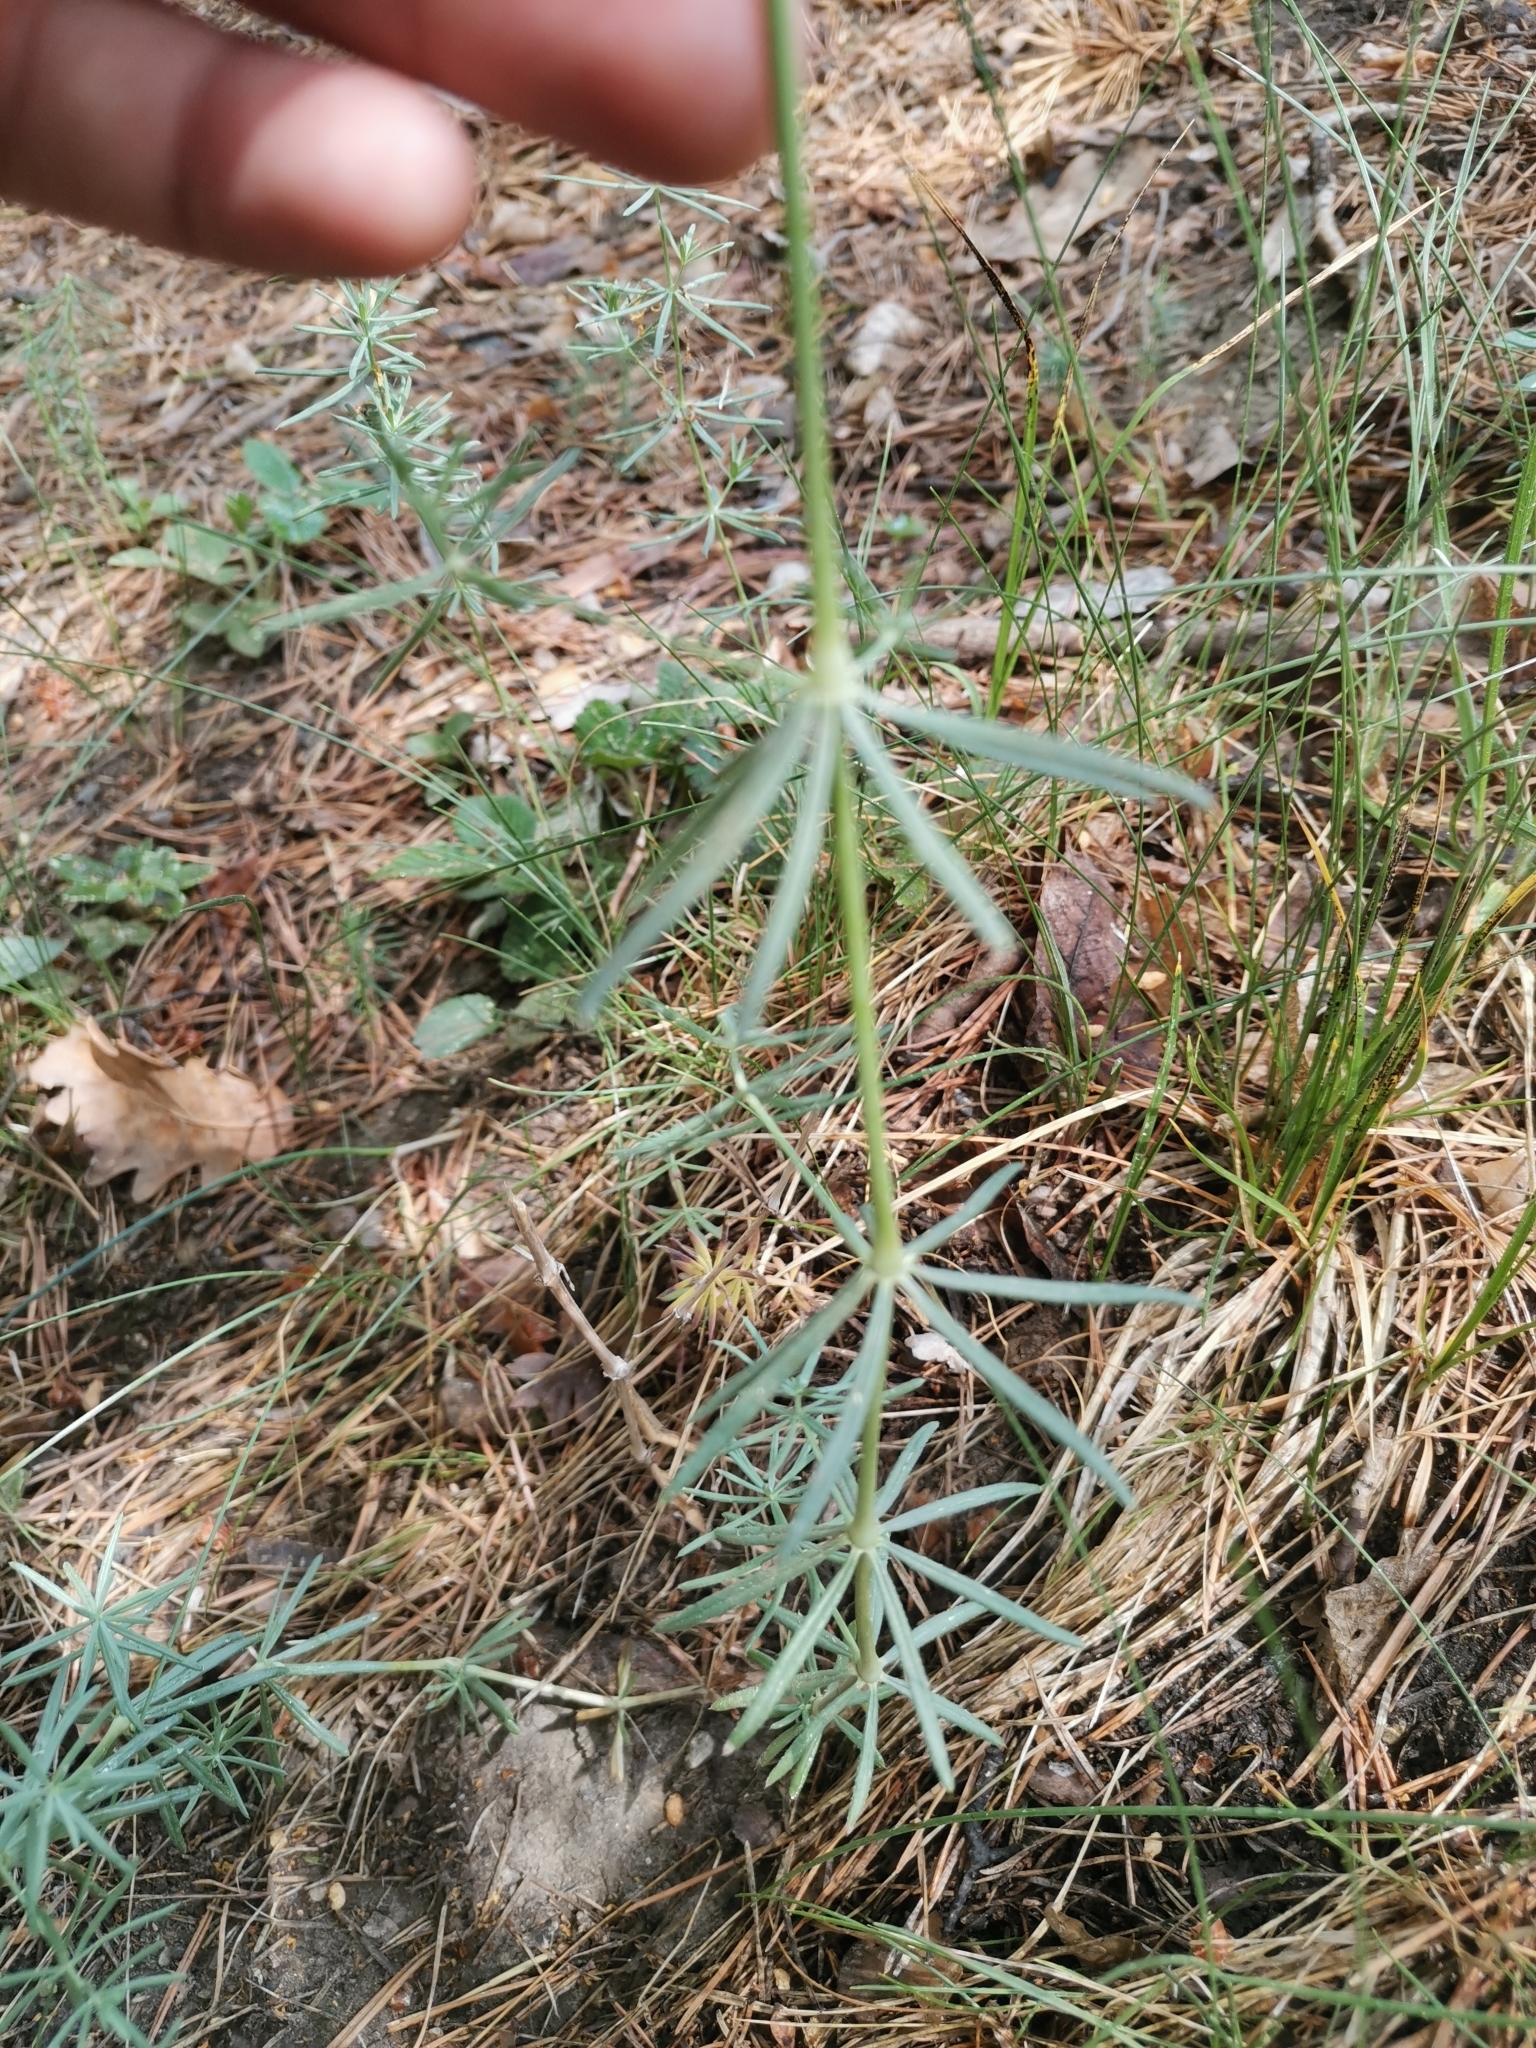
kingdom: Plantae
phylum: Tracheophyta
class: Magnoliopsida
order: Gentianales
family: Rubiaceae
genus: Galium
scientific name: Galium glaucum
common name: Waxy bedstraw
